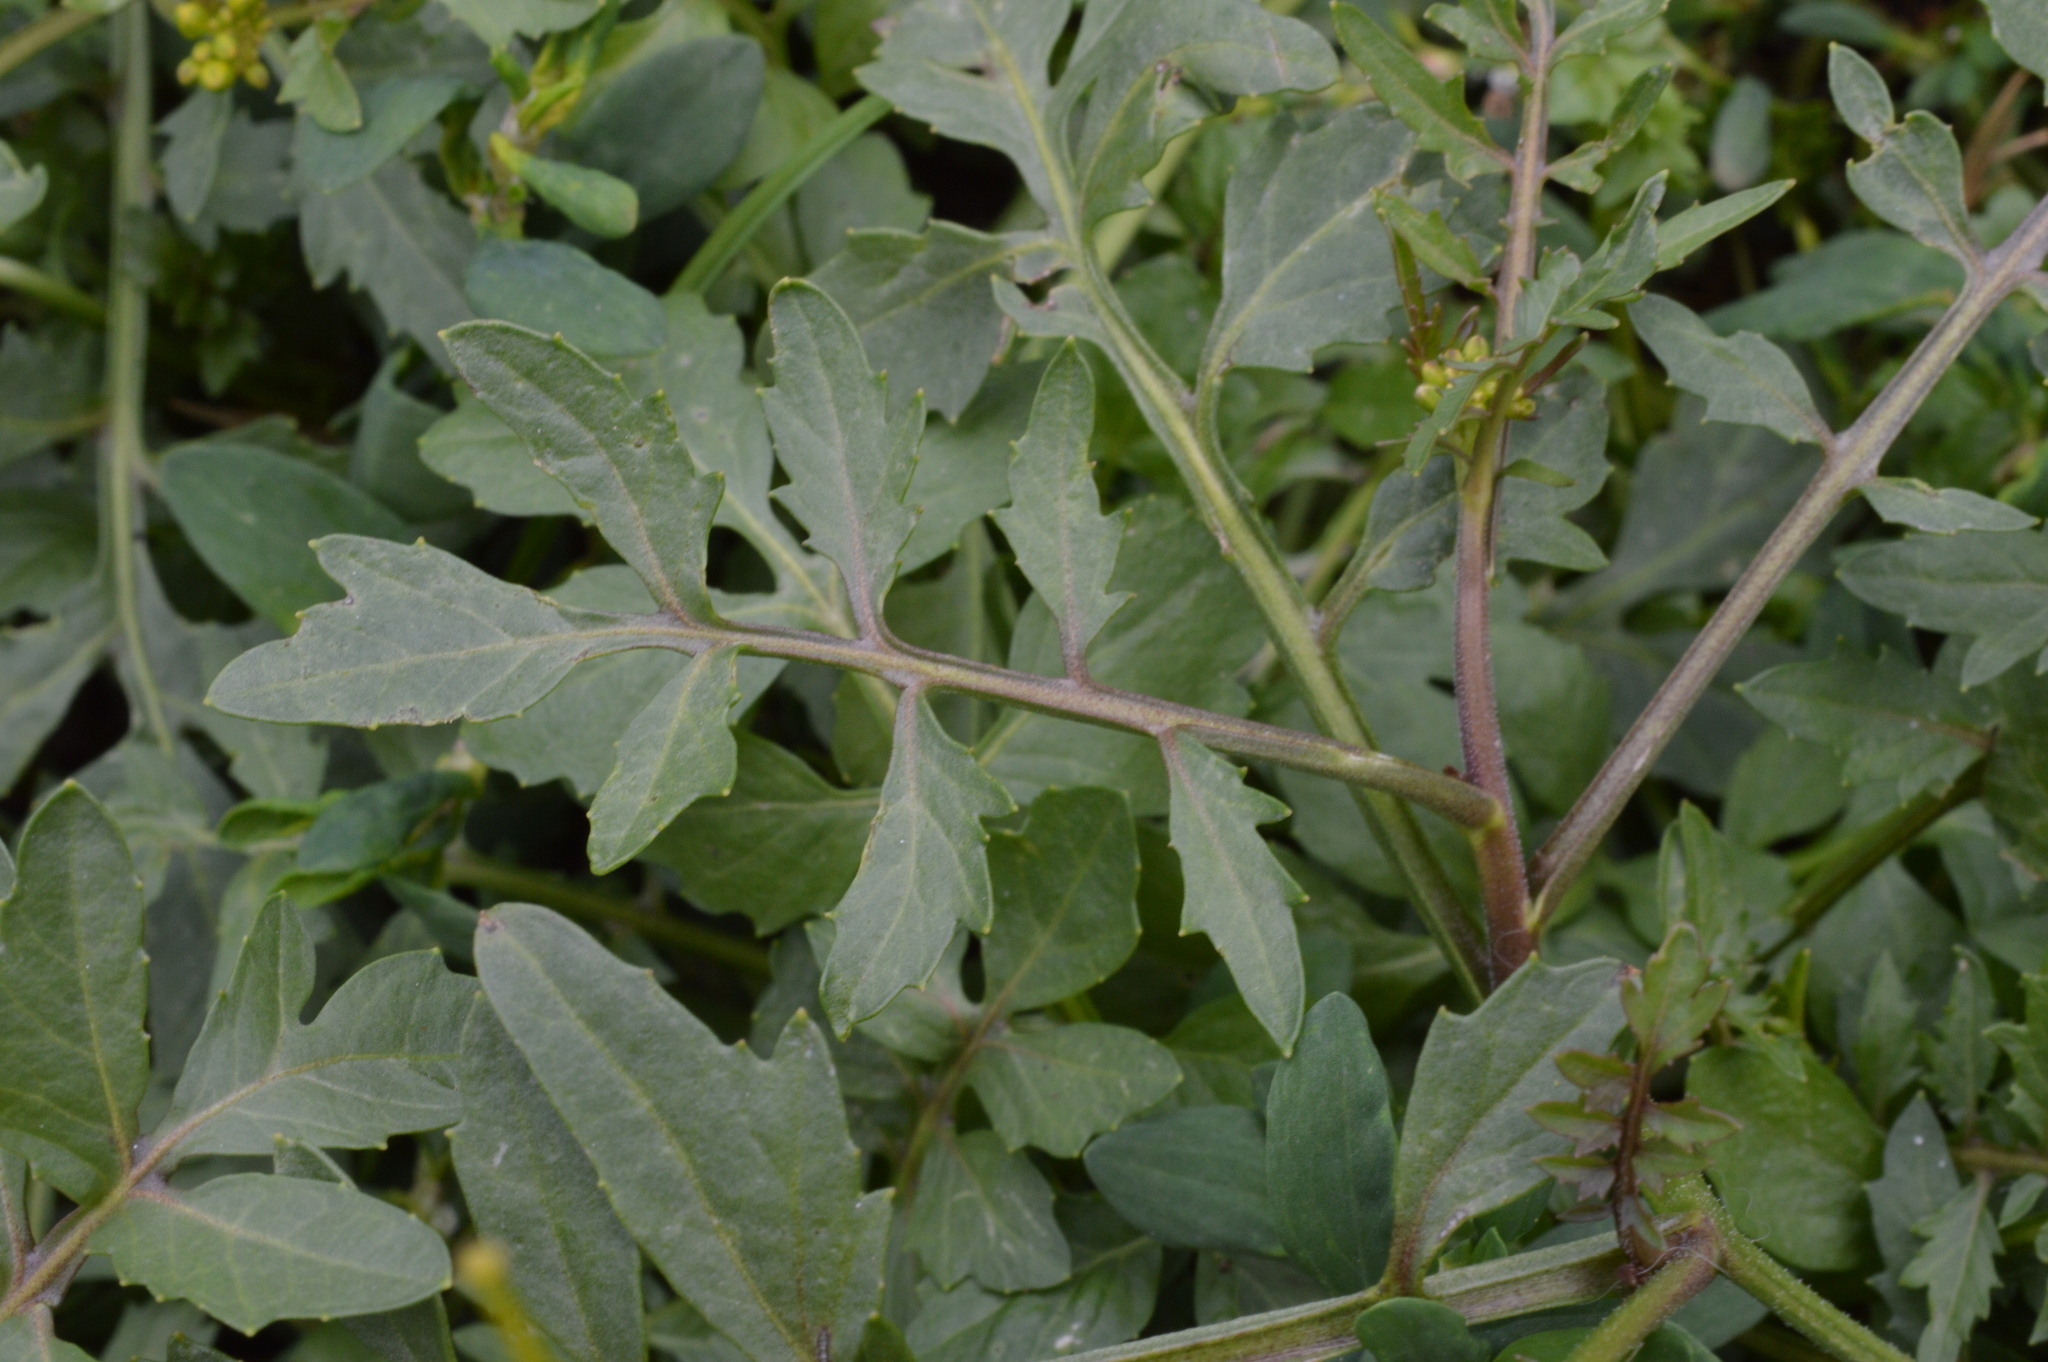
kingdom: Plantae
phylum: Tracheophyta
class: Magnoliopsida
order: Brassicales
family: Brassicaceae
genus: Rorippa
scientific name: Rorippa sylvestris
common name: Creeping yellowcress
